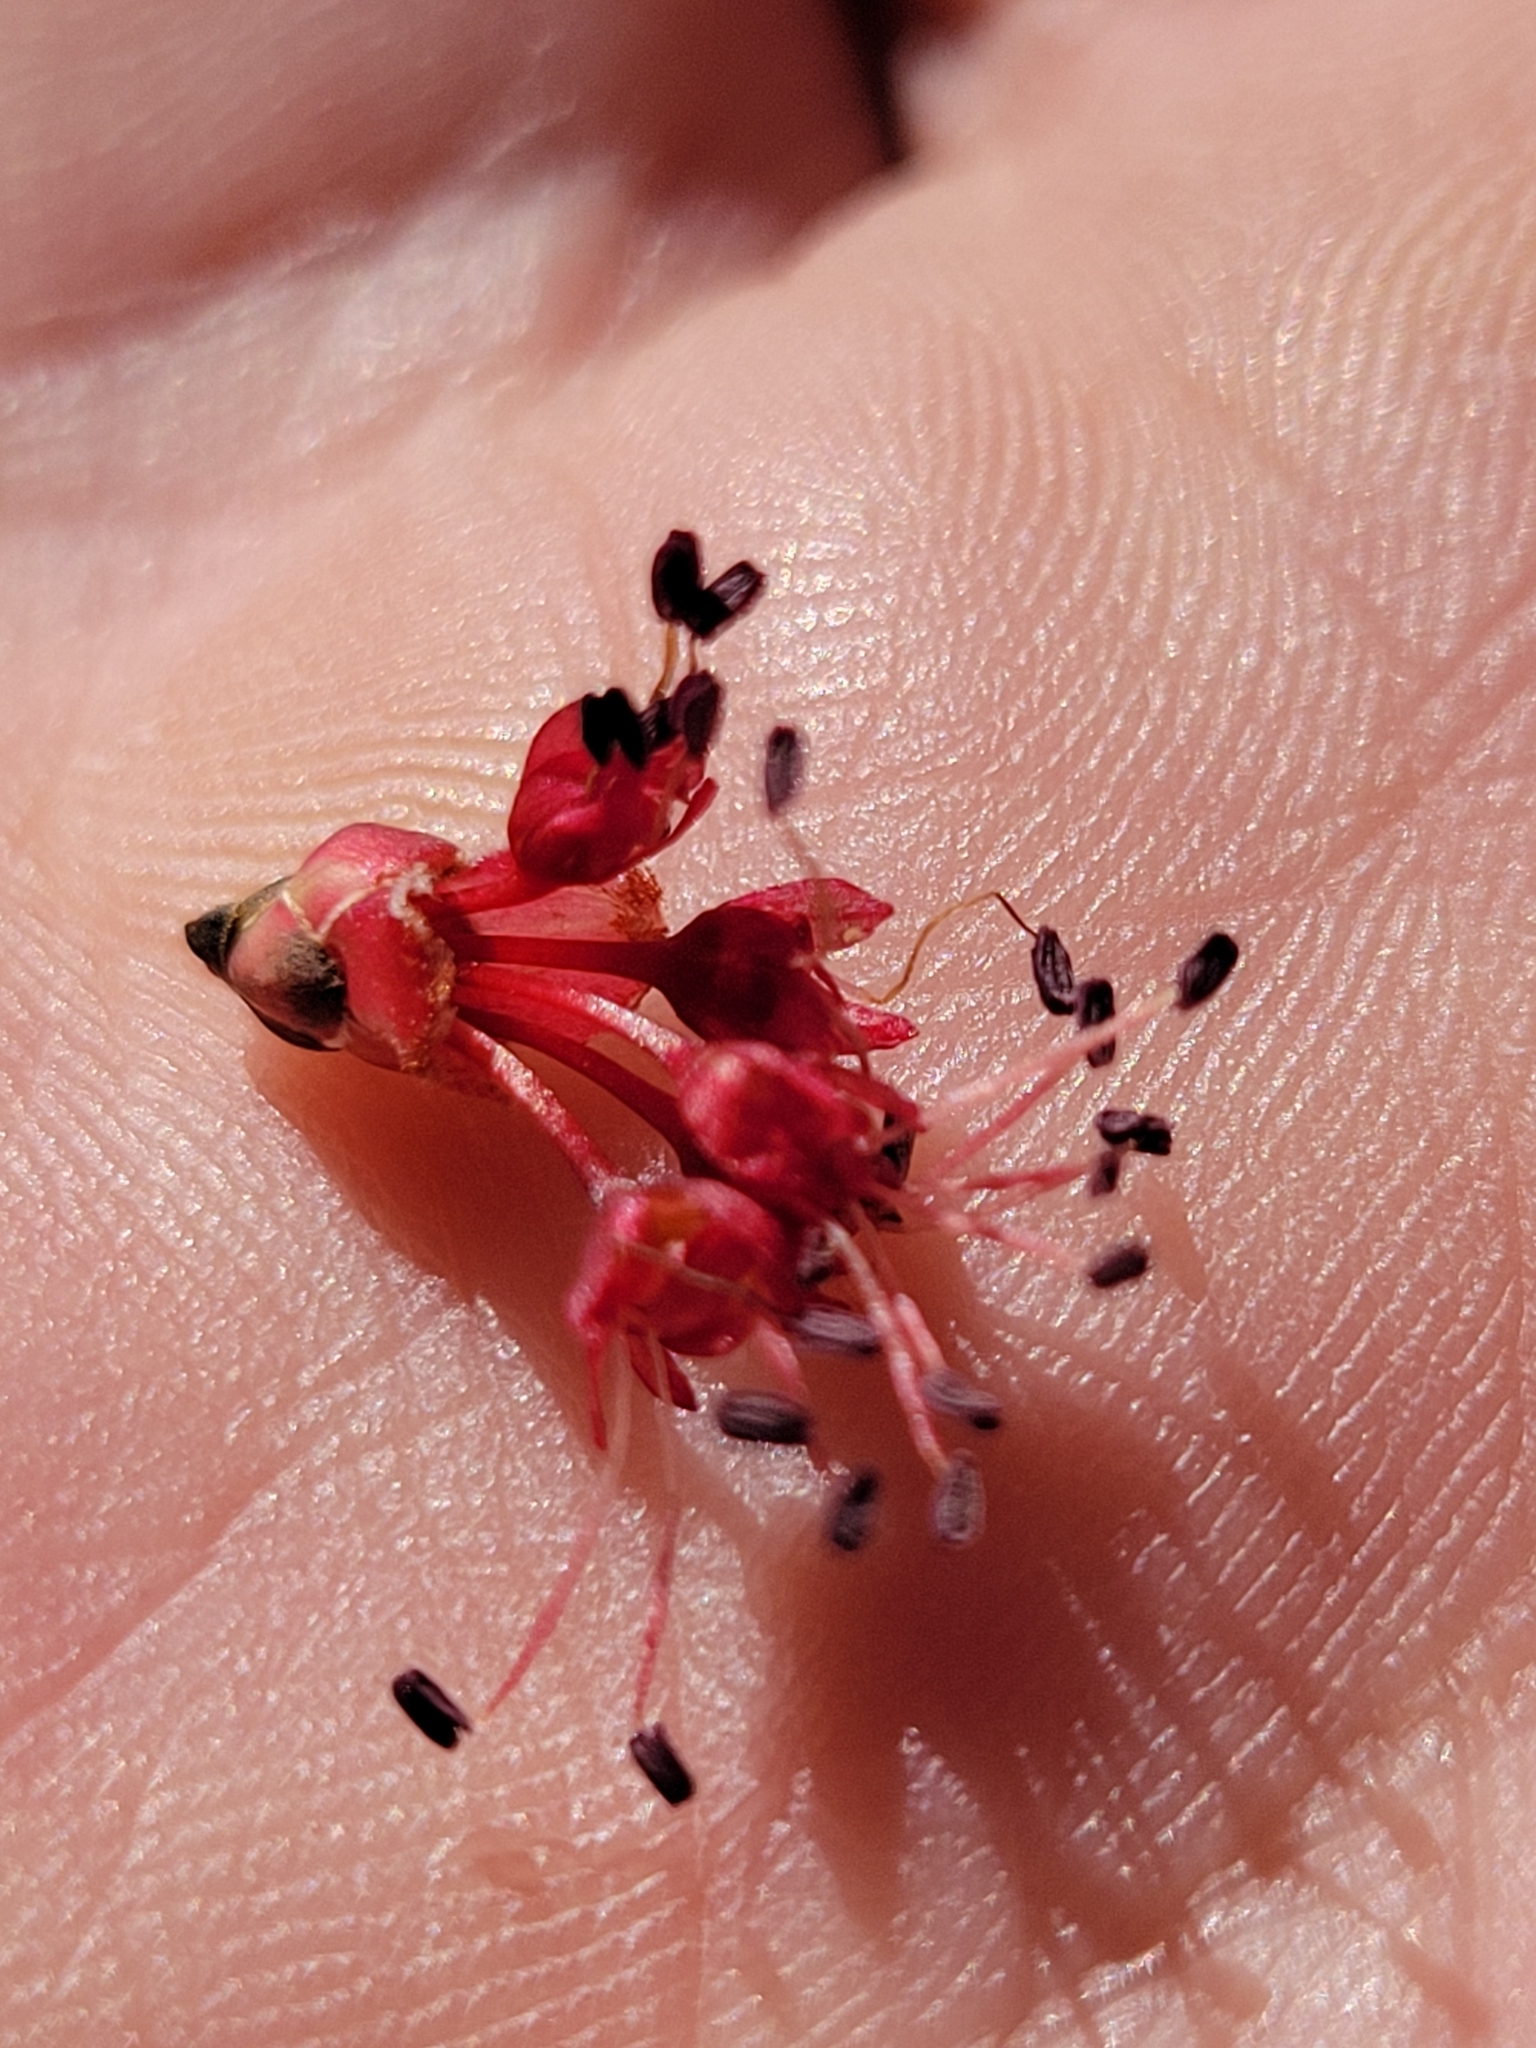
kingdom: Plantae
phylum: Tracheophyta
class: Magnoliopsida
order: Sapindales
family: Sapindaceae
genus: Acer
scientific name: Acer rubrum
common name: Red maple
